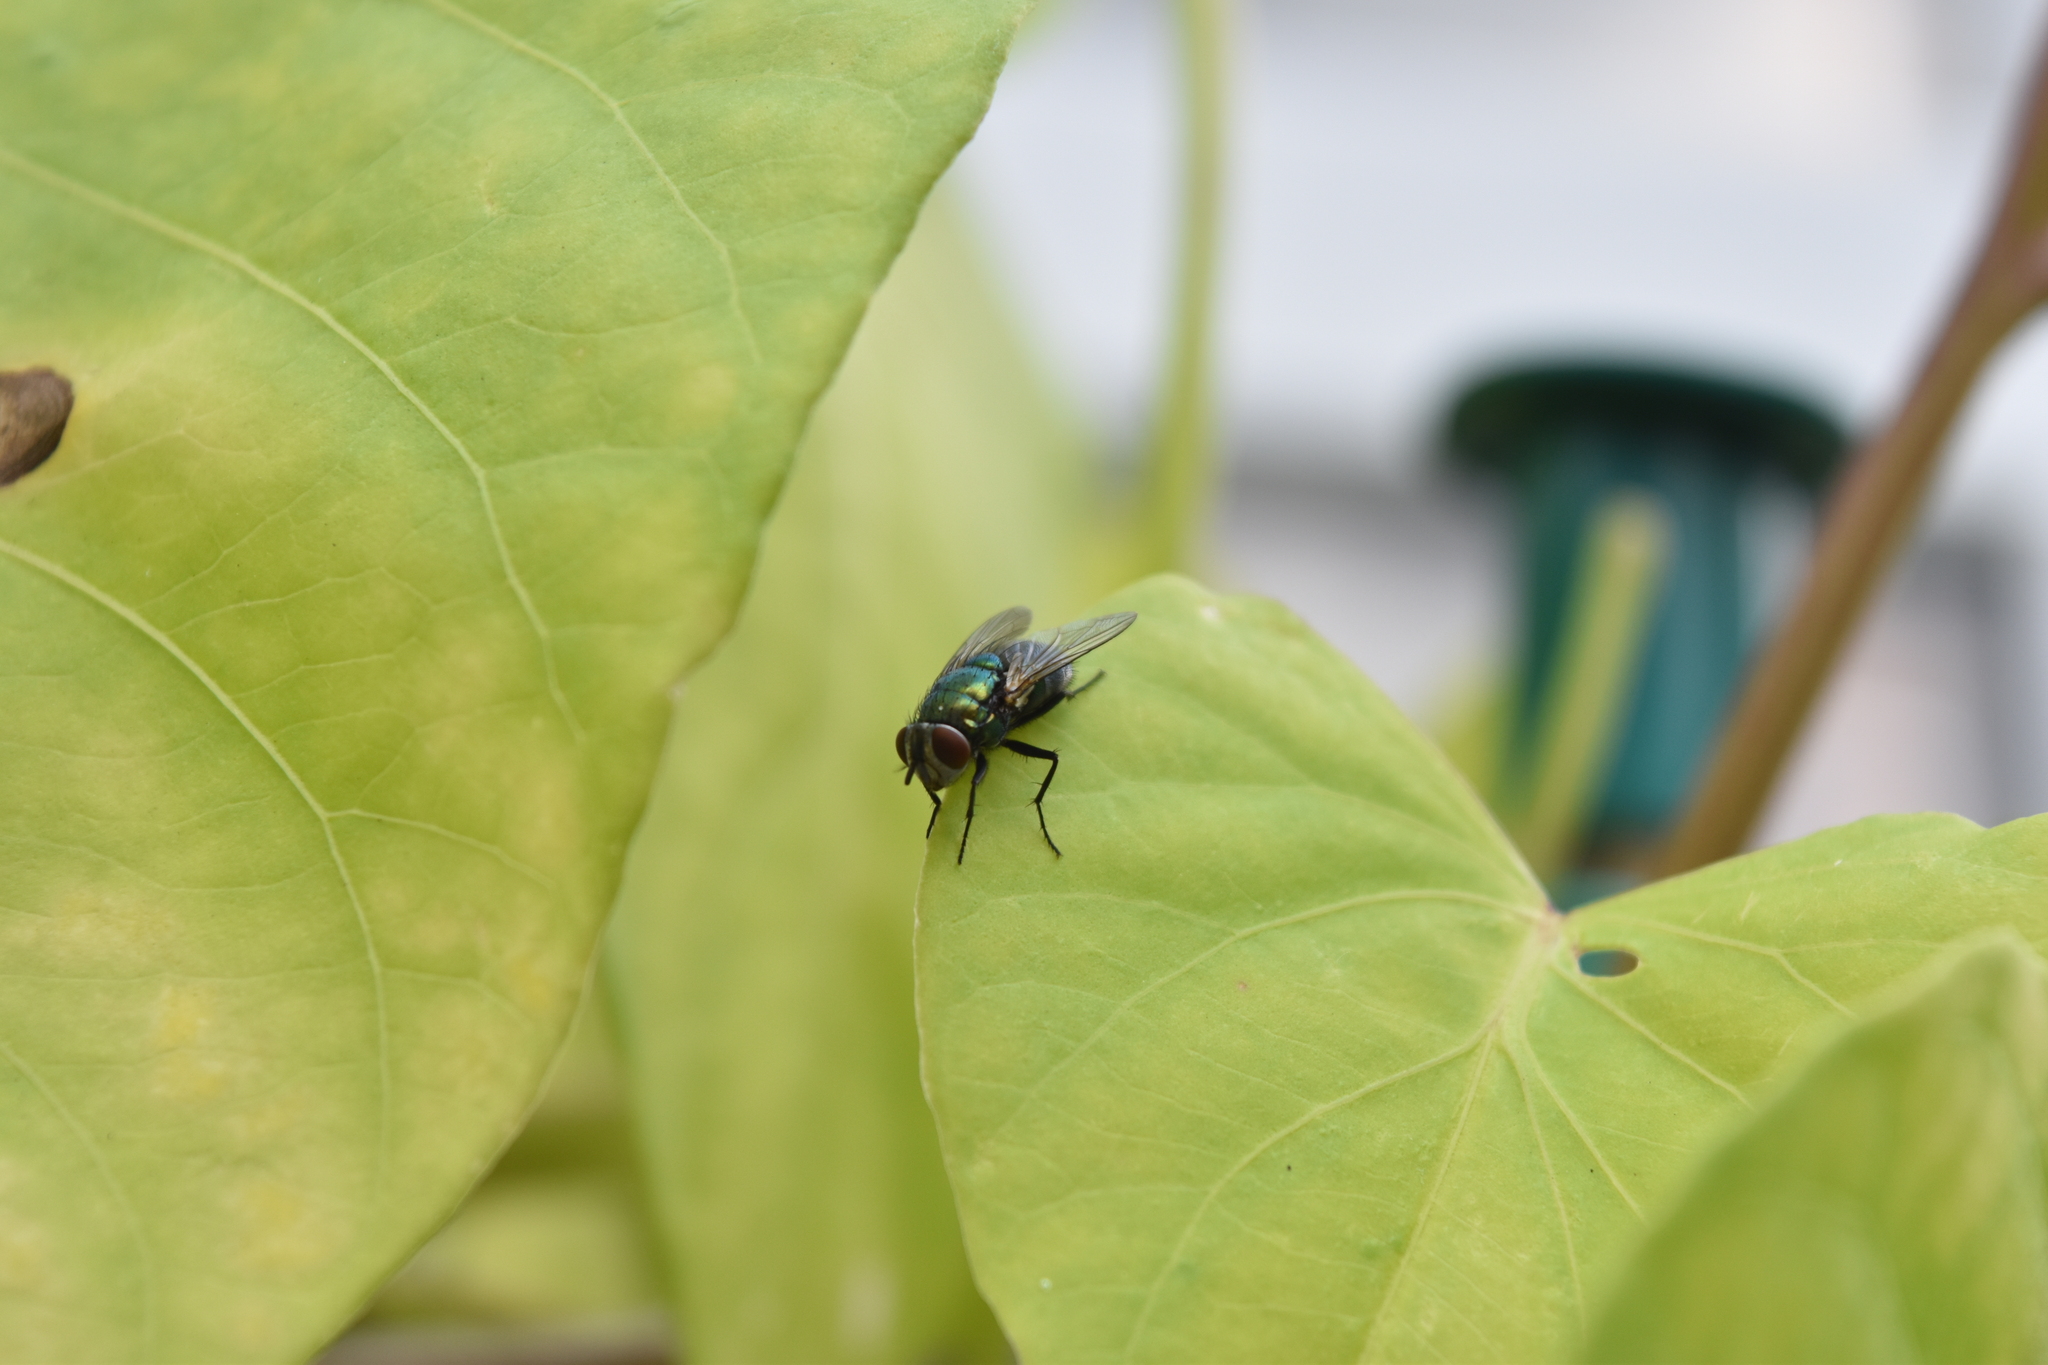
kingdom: Animalia
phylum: Arthropoda
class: Insecta
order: Diptera
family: Calliphoridae
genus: Lucilia
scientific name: Lucilia
